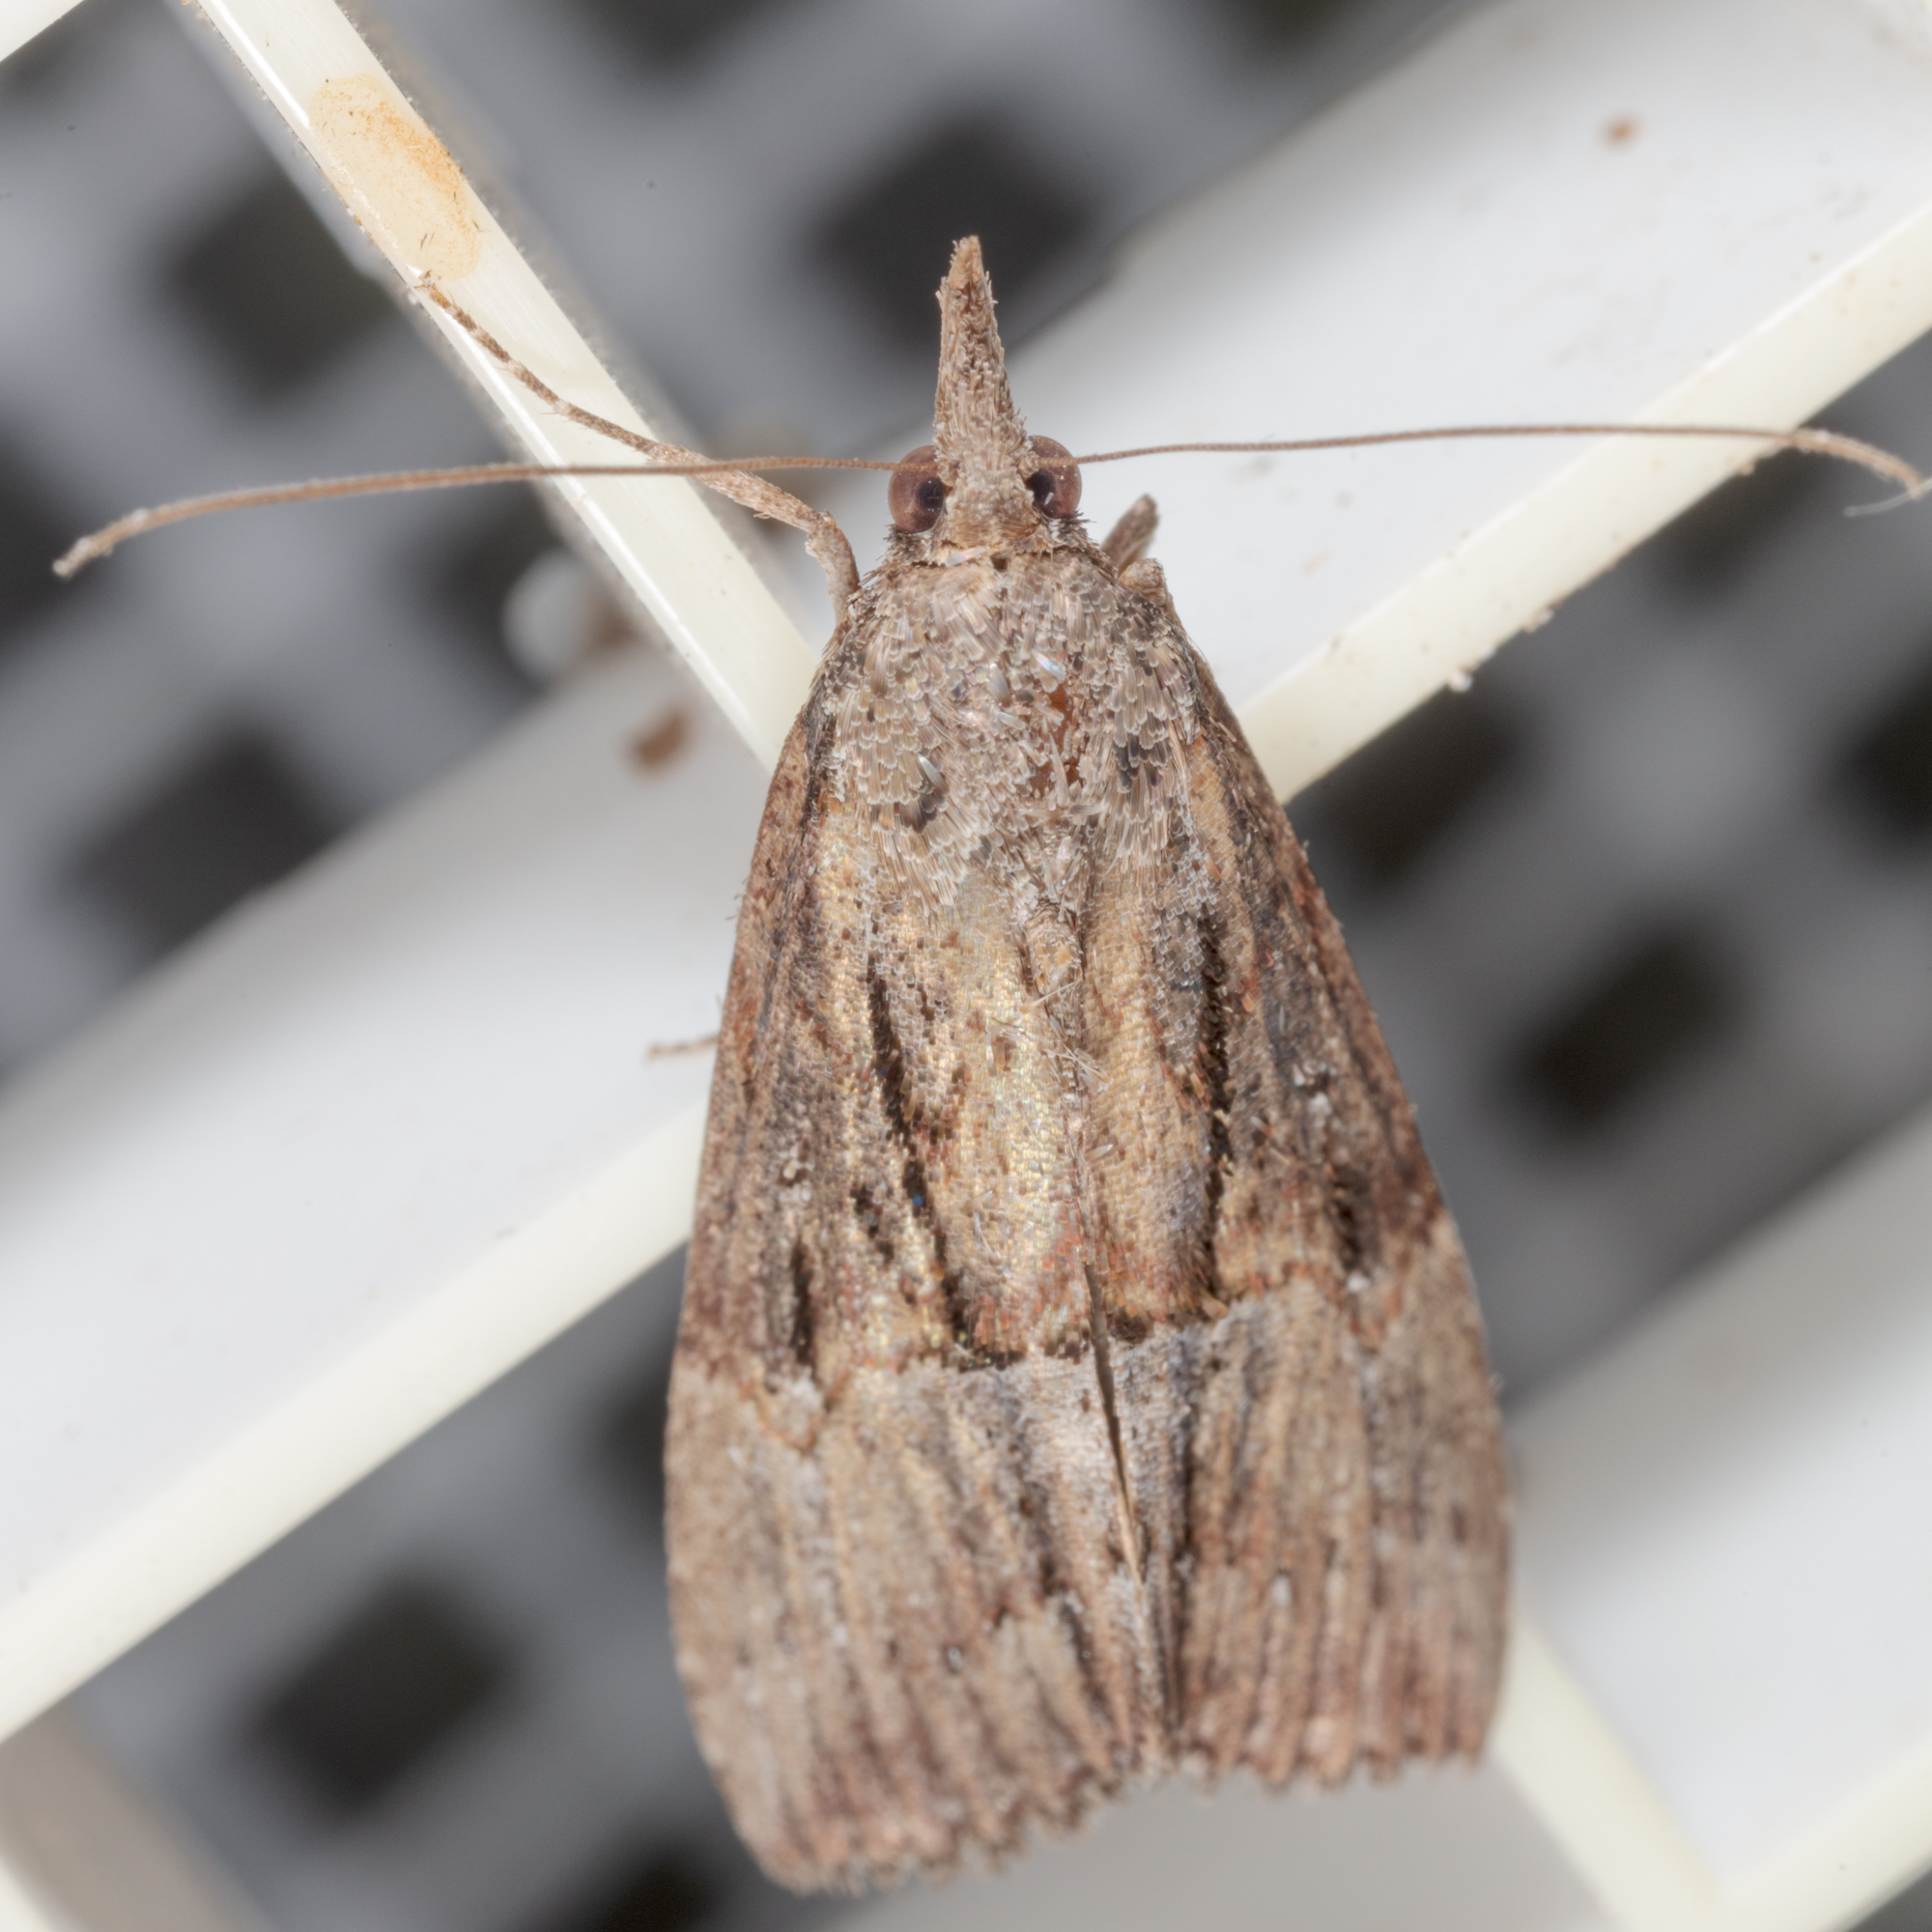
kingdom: Animalia
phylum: Arthropoda
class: Insecta
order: Lepidoptera
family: Erebidae
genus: Hypena
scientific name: Hypena scabra
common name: Green cloverworm
